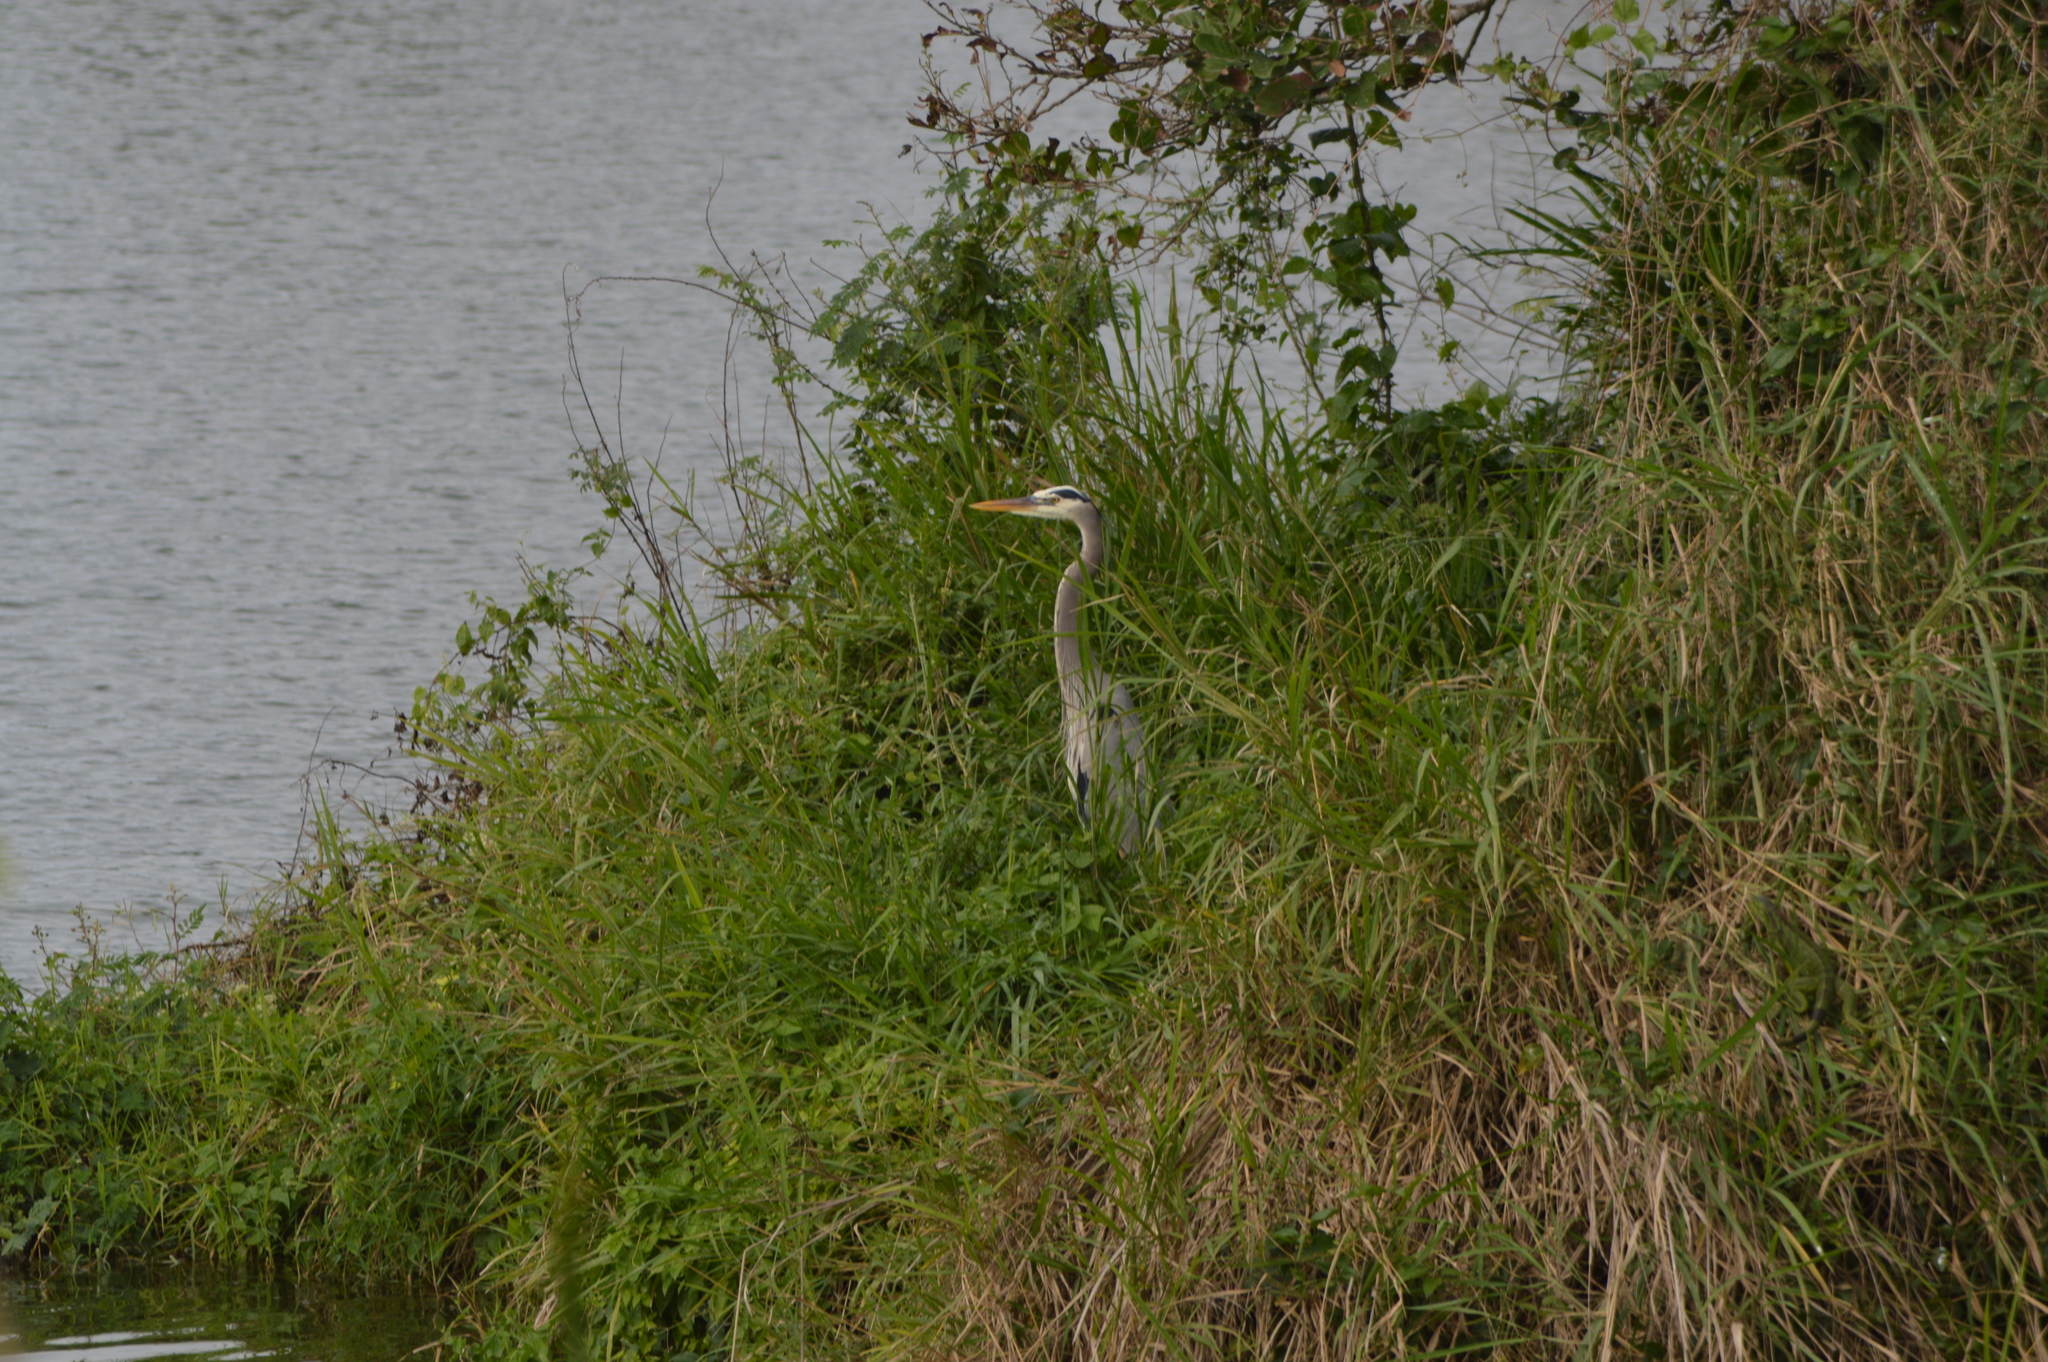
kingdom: Animalia
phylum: Chordata
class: Aves
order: Pelecaniformes
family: Ardeidae
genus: Ardea
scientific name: Ardea herodias
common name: Great blue heron
